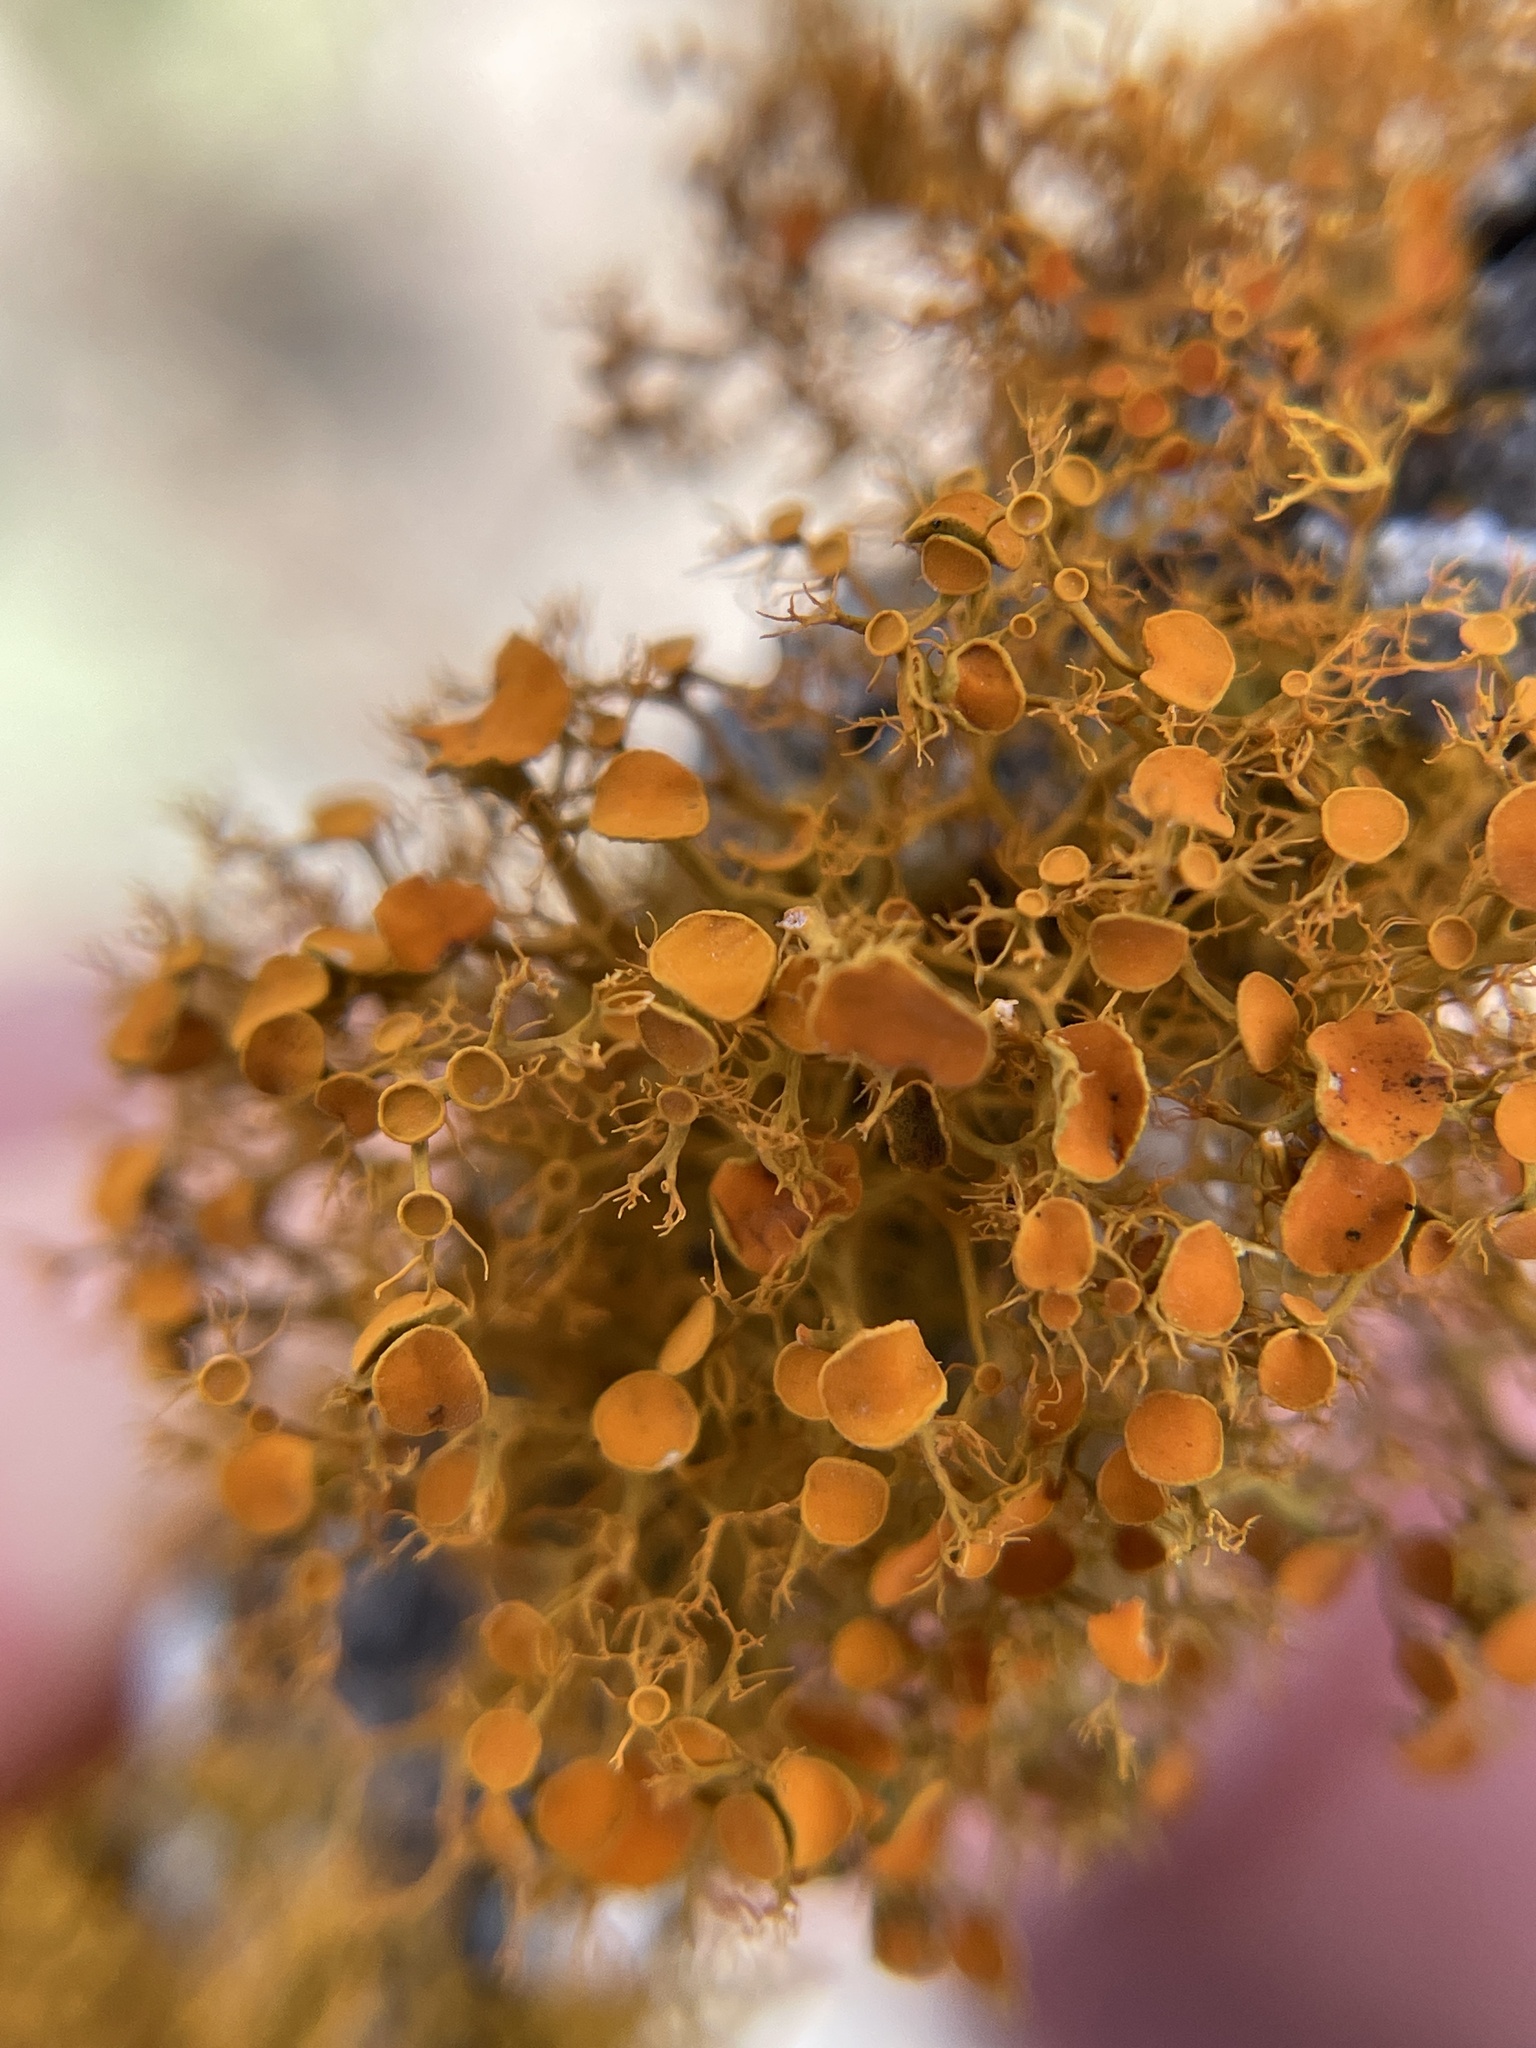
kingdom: Fungi
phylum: Ascomycota
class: Lecanoromycetes
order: Teloschistales
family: Teloschistaceae
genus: Teloschistes
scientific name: Teloschistes exilis
